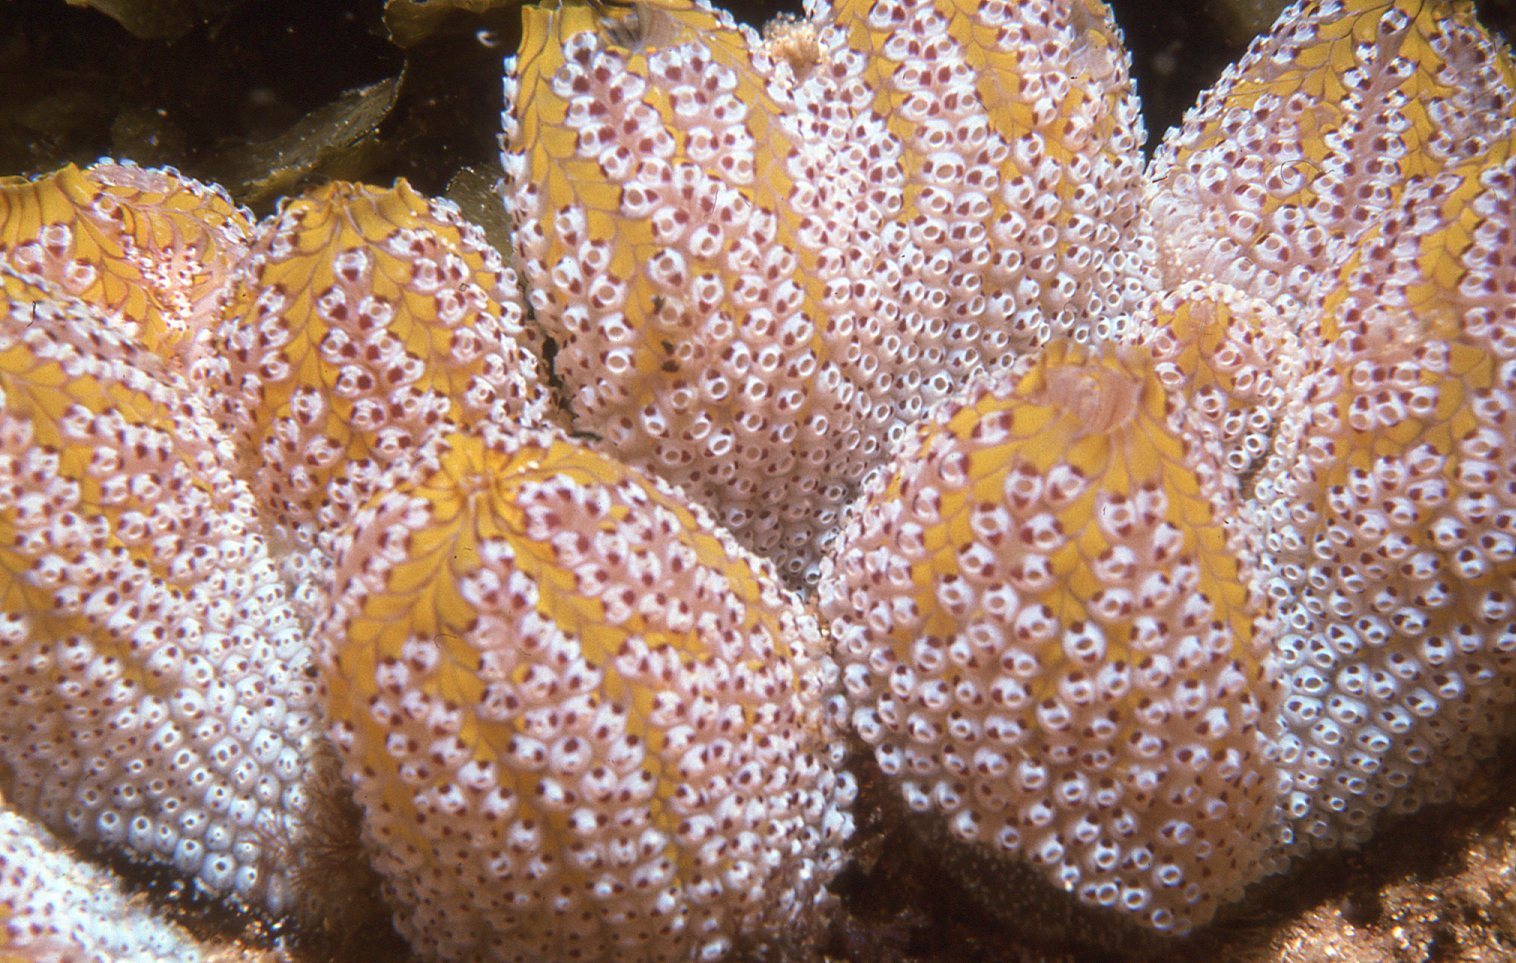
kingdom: Animalia
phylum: Chordata
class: Ascidiacea
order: Stolidobranchia
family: Styelidae
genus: Botrylloides
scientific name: Botrylloides magnicoecus
